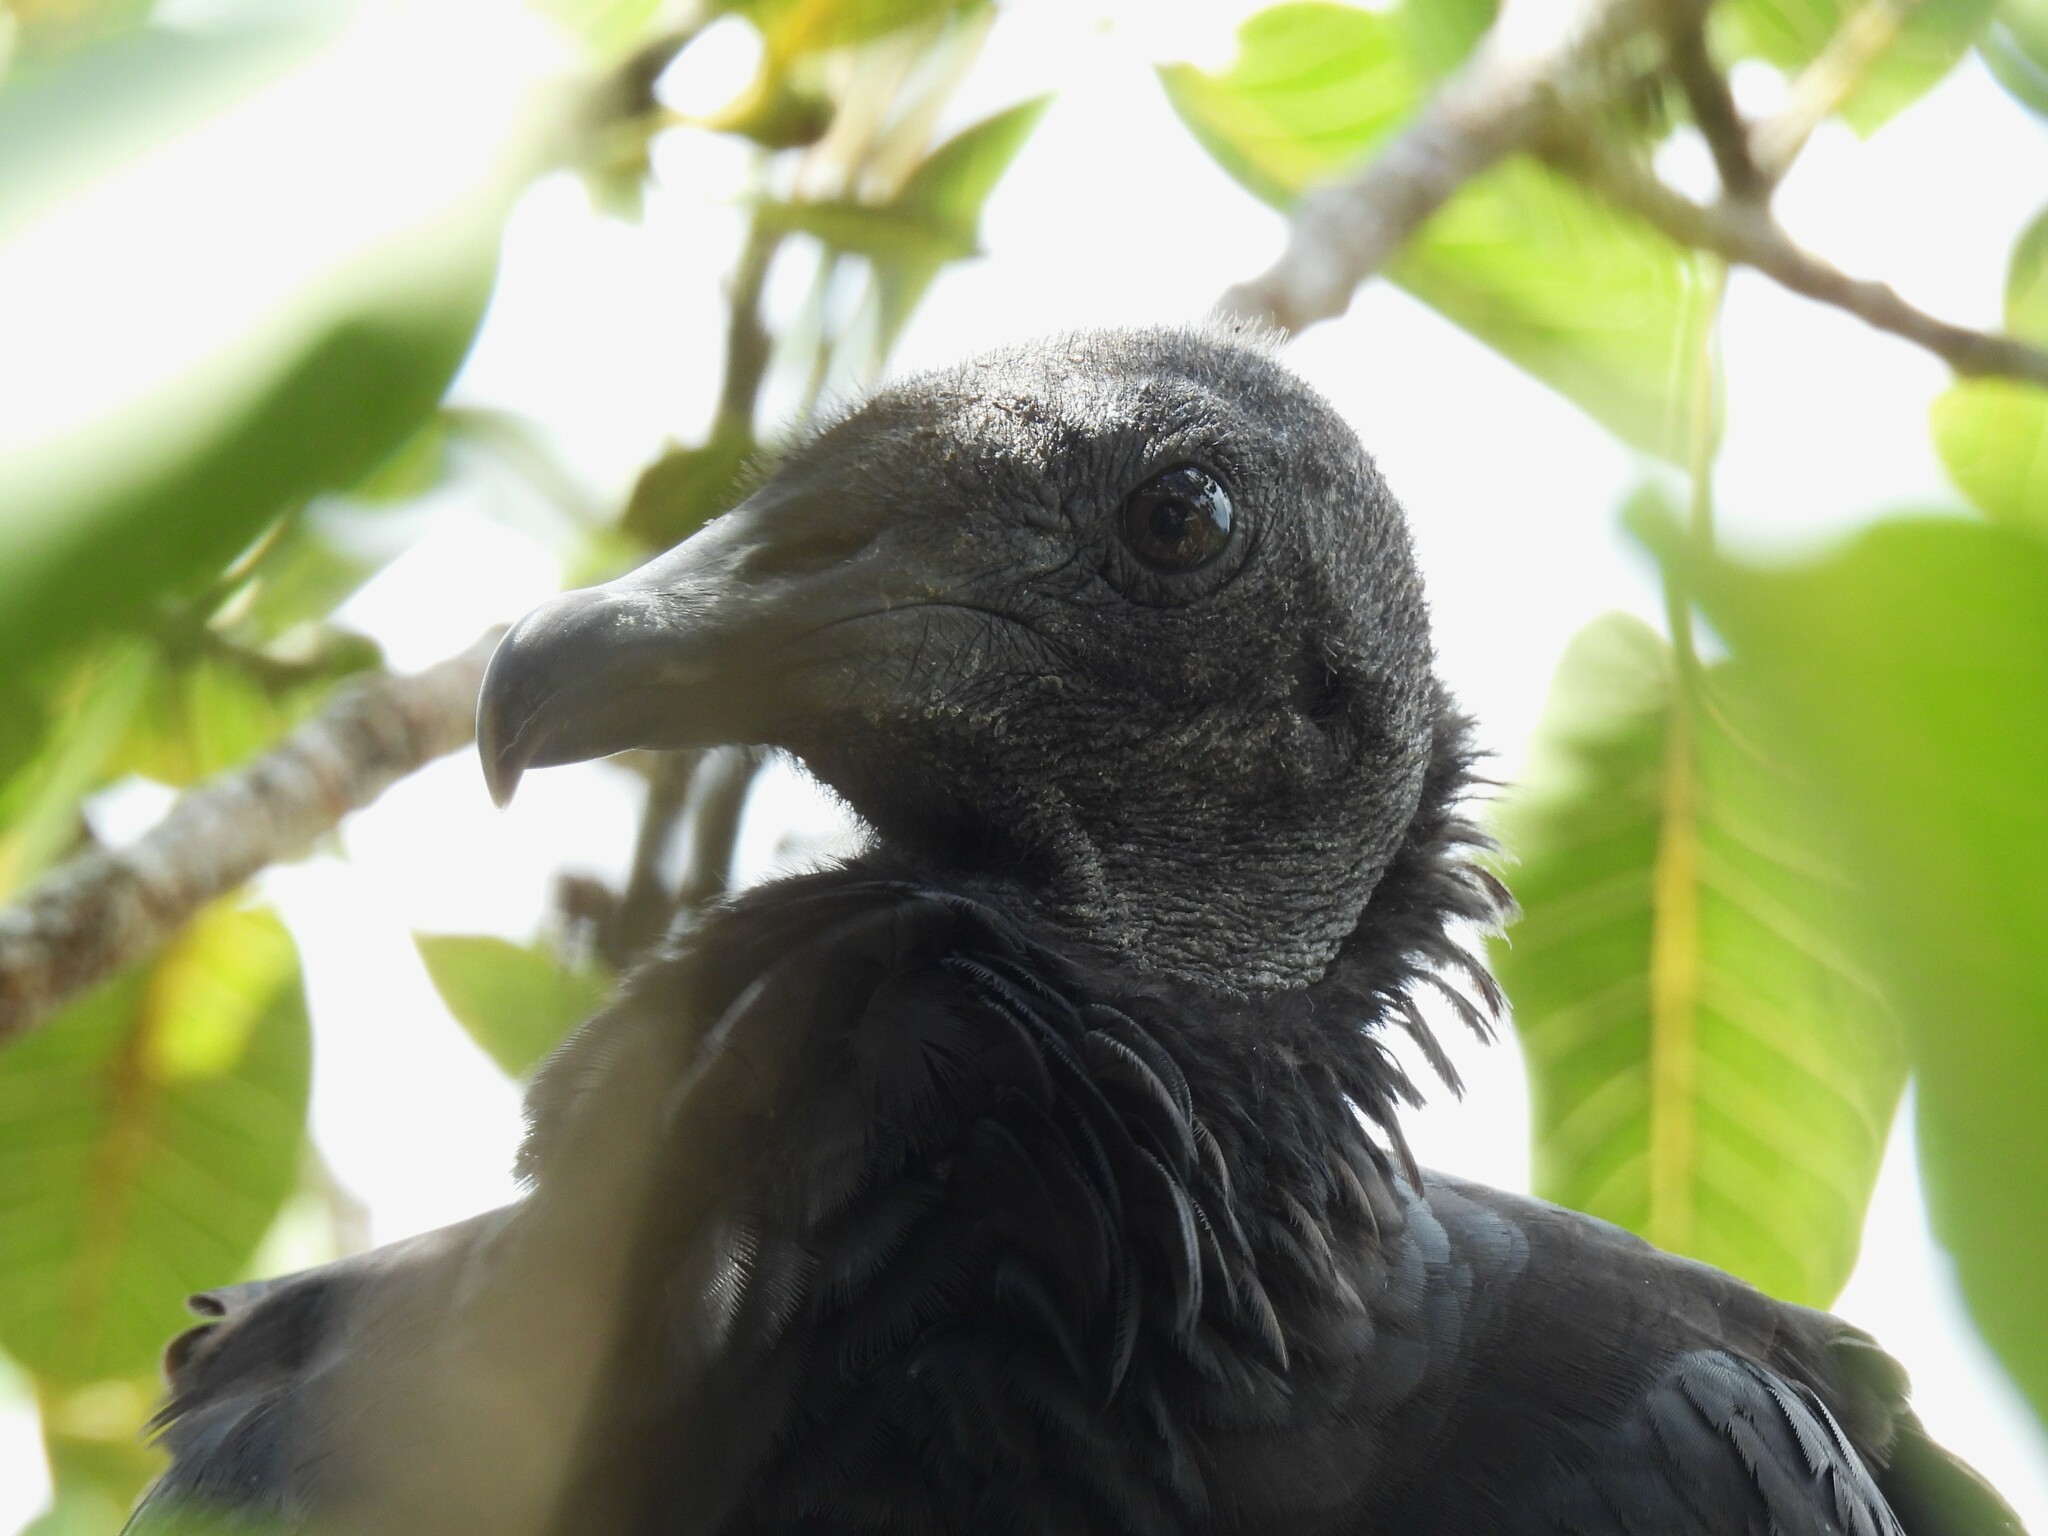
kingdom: Animalia
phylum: Chordata
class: Aves
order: Accipitriformes
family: Cathartidae
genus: Coragyps
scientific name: Coragyps atratus
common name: Black vulture
